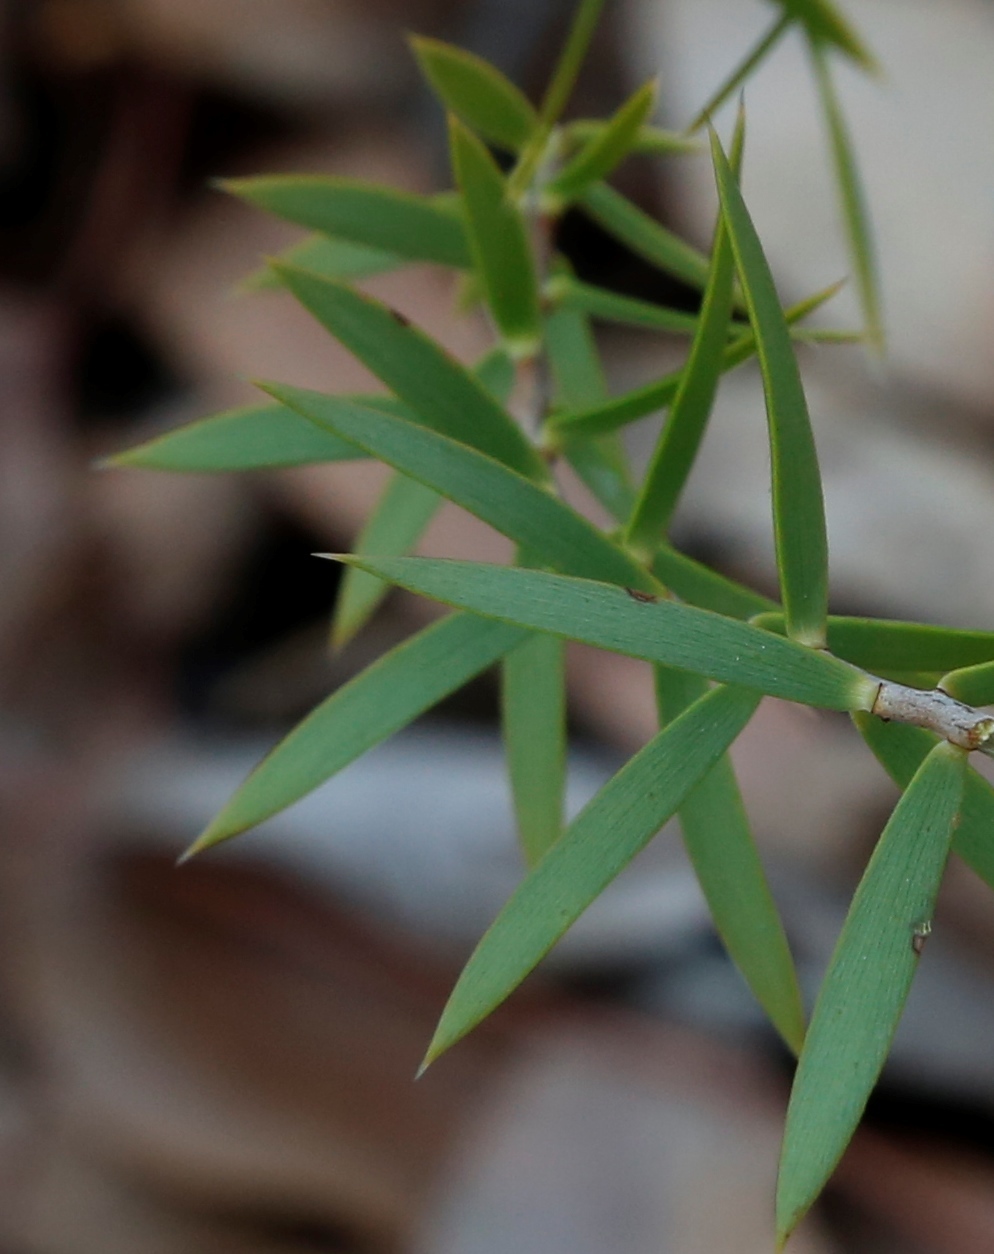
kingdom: Plantae
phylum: Tracheophyta
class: Magnoliopsida
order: Ericales
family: Ericaceae
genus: Styphelia
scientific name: Styphelia nitens
